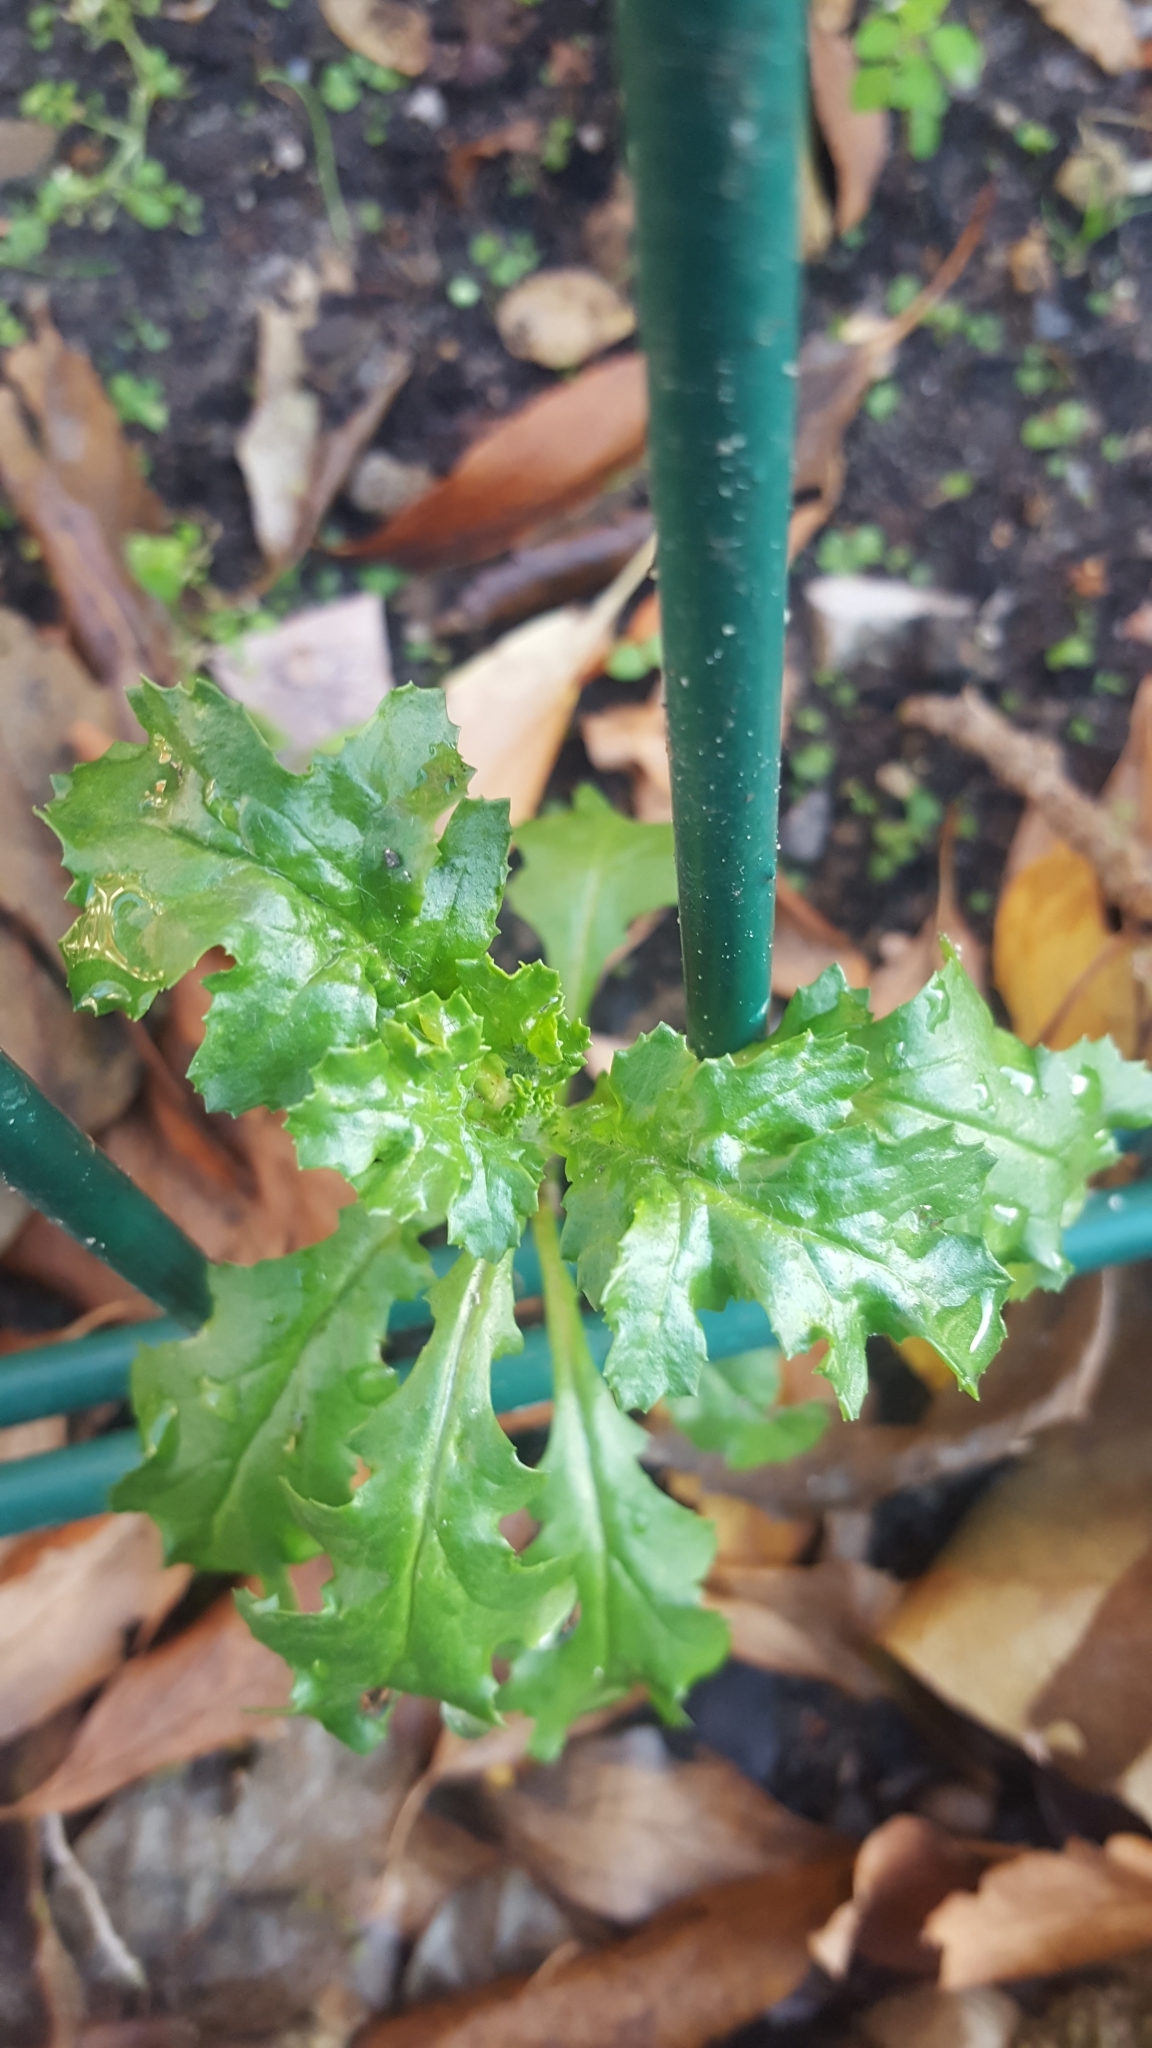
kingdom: Plantae
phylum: Tracheophyta
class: Magnoliopsida
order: Asterales
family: Asteraceae
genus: Senecio
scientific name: Senecio vulgaris
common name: Old-man-in-the-spring
